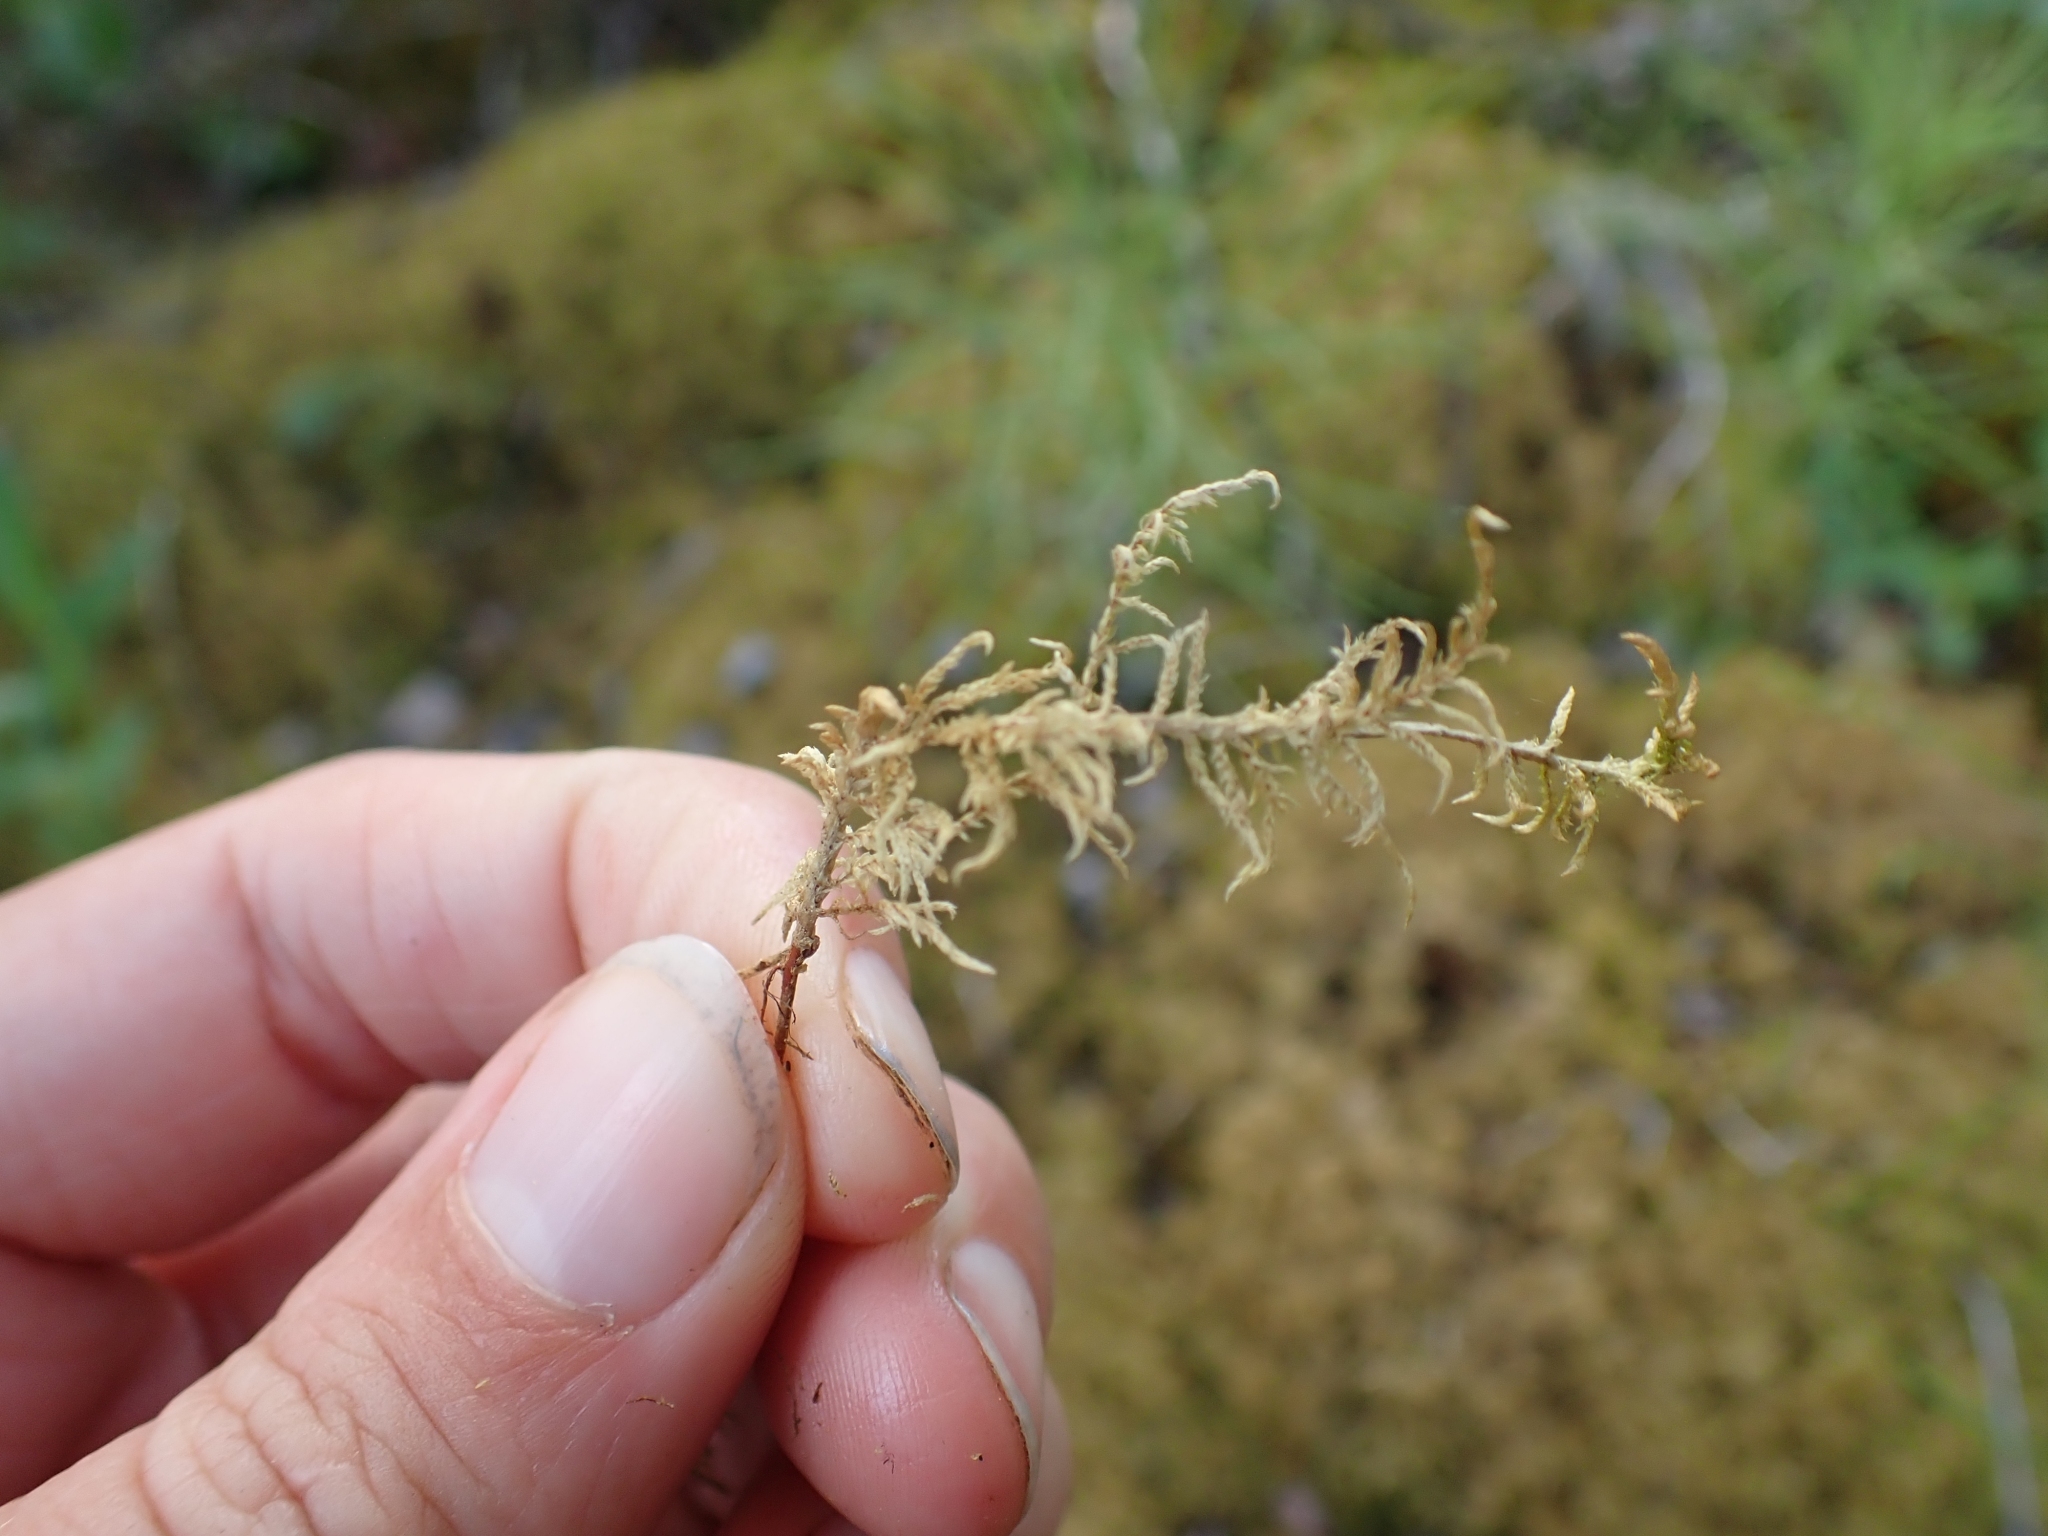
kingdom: Plantae
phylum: Bryophyta
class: Bryopsida
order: Hypnales
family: Hylocomiaceae
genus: Hylocomium
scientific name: Hylocomium splendens
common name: Stairstep moss
